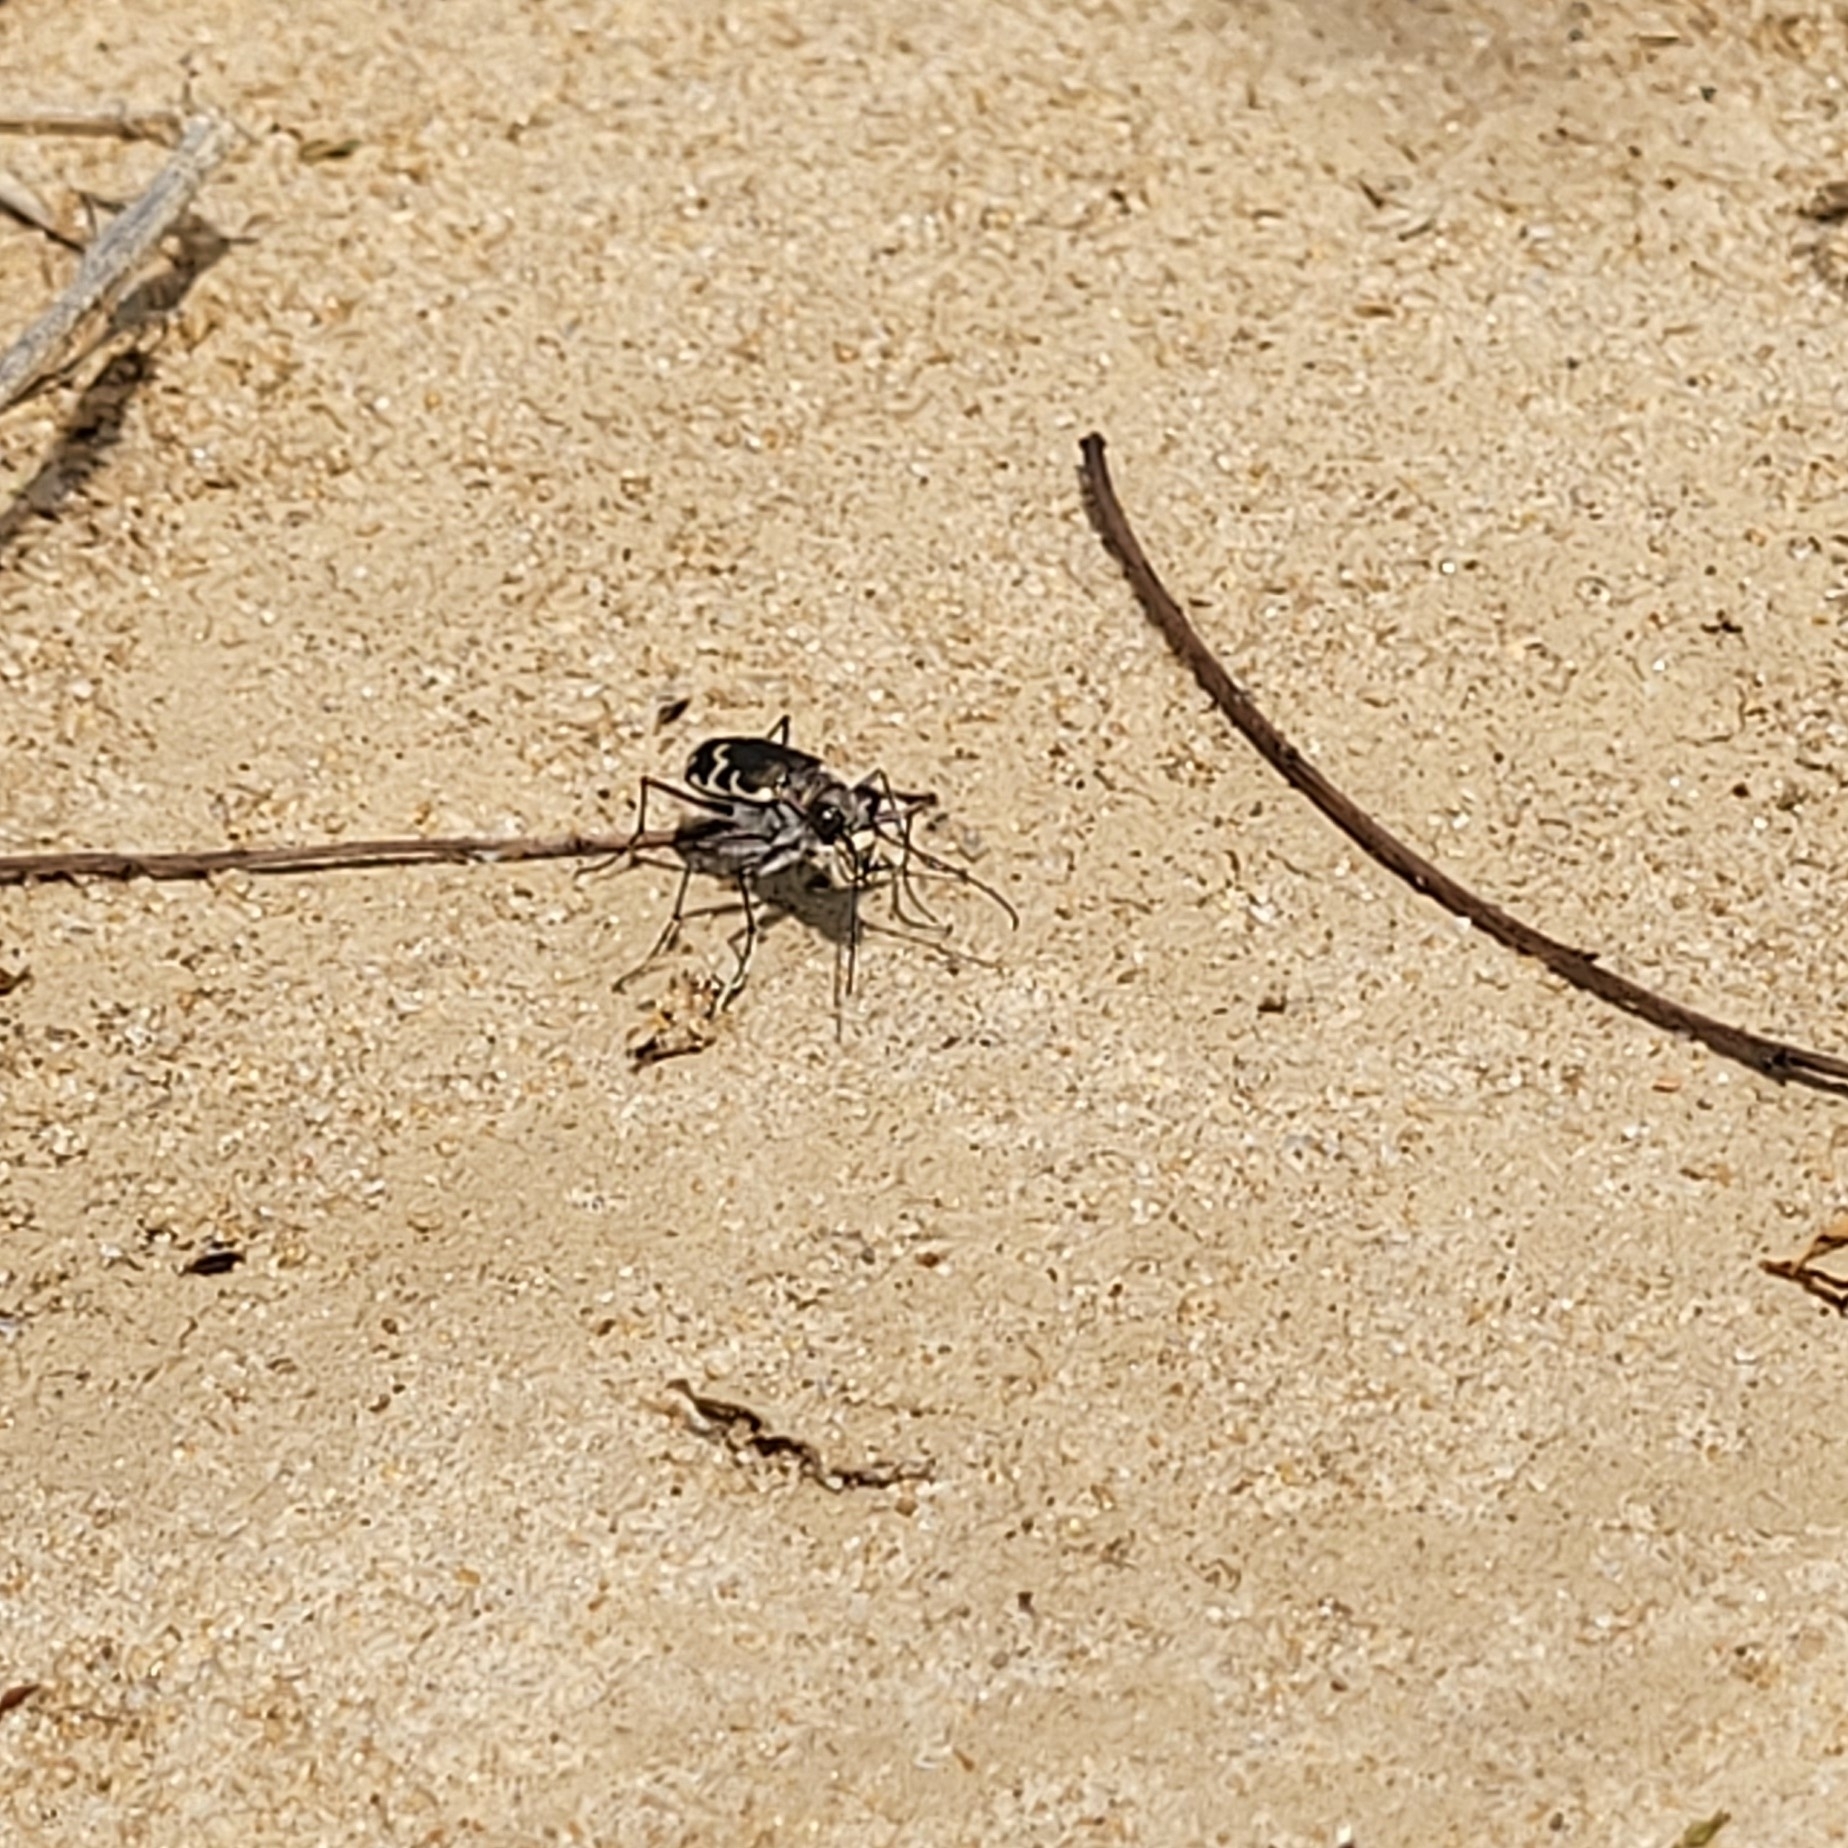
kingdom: Animalia
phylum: Arthropoda
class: Insecta
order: Coleoptera
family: Carabidae
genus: Cicindela
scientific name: Cicindela repanda
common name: Bronzed tiger beetle
